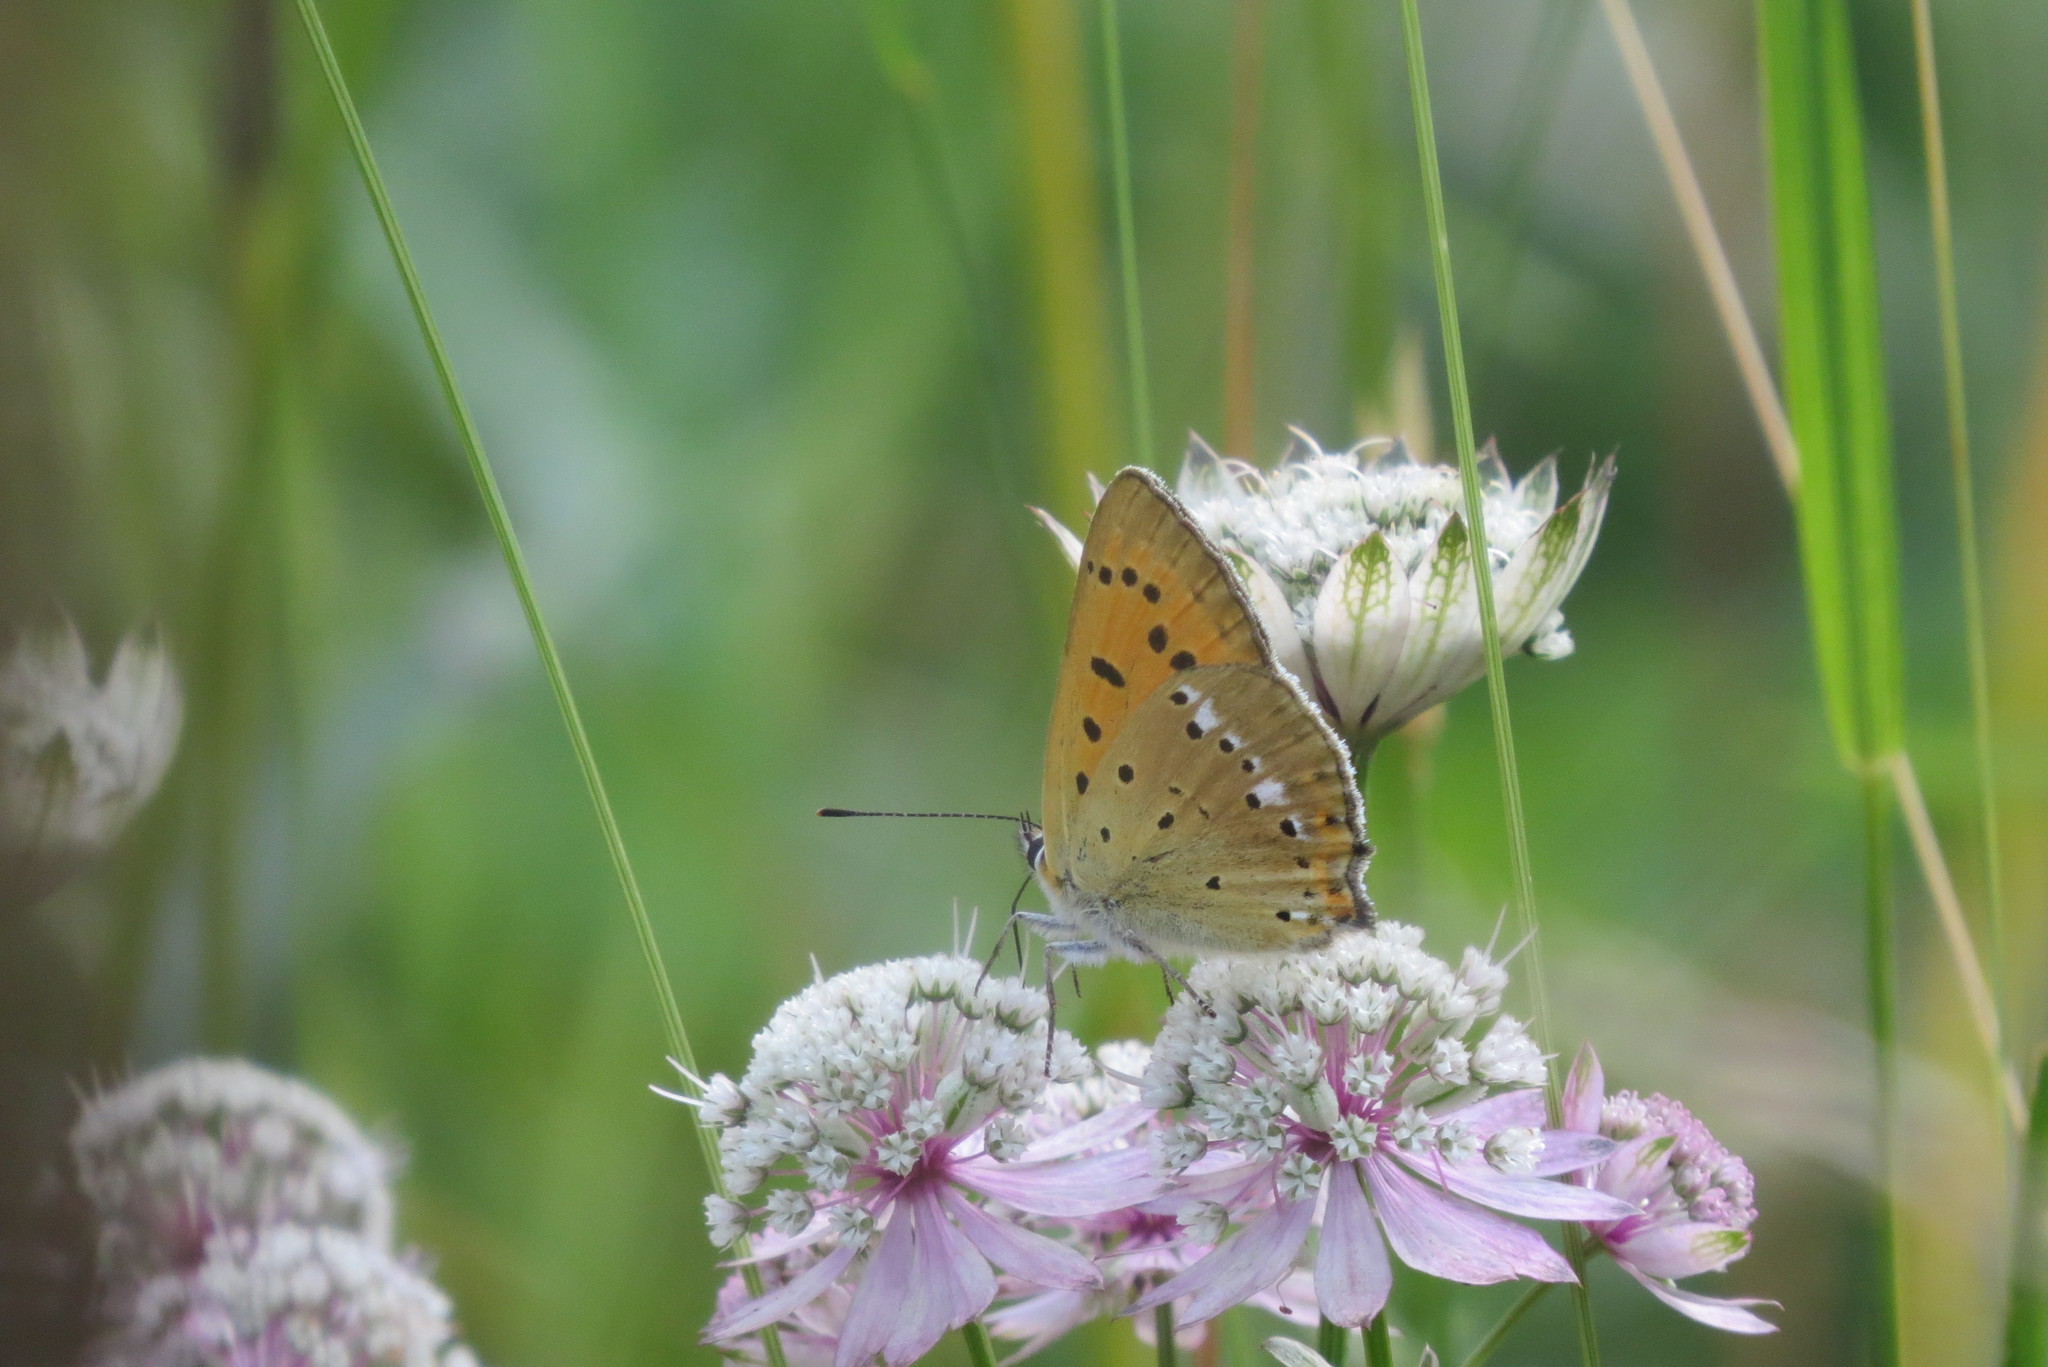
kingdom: Animalia
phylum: Arthropoda
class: Insecta
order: Lepidoptera
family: Lycaenidae
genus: Lycaena
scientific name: Lycaena virgaureae
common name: Scarce copper
